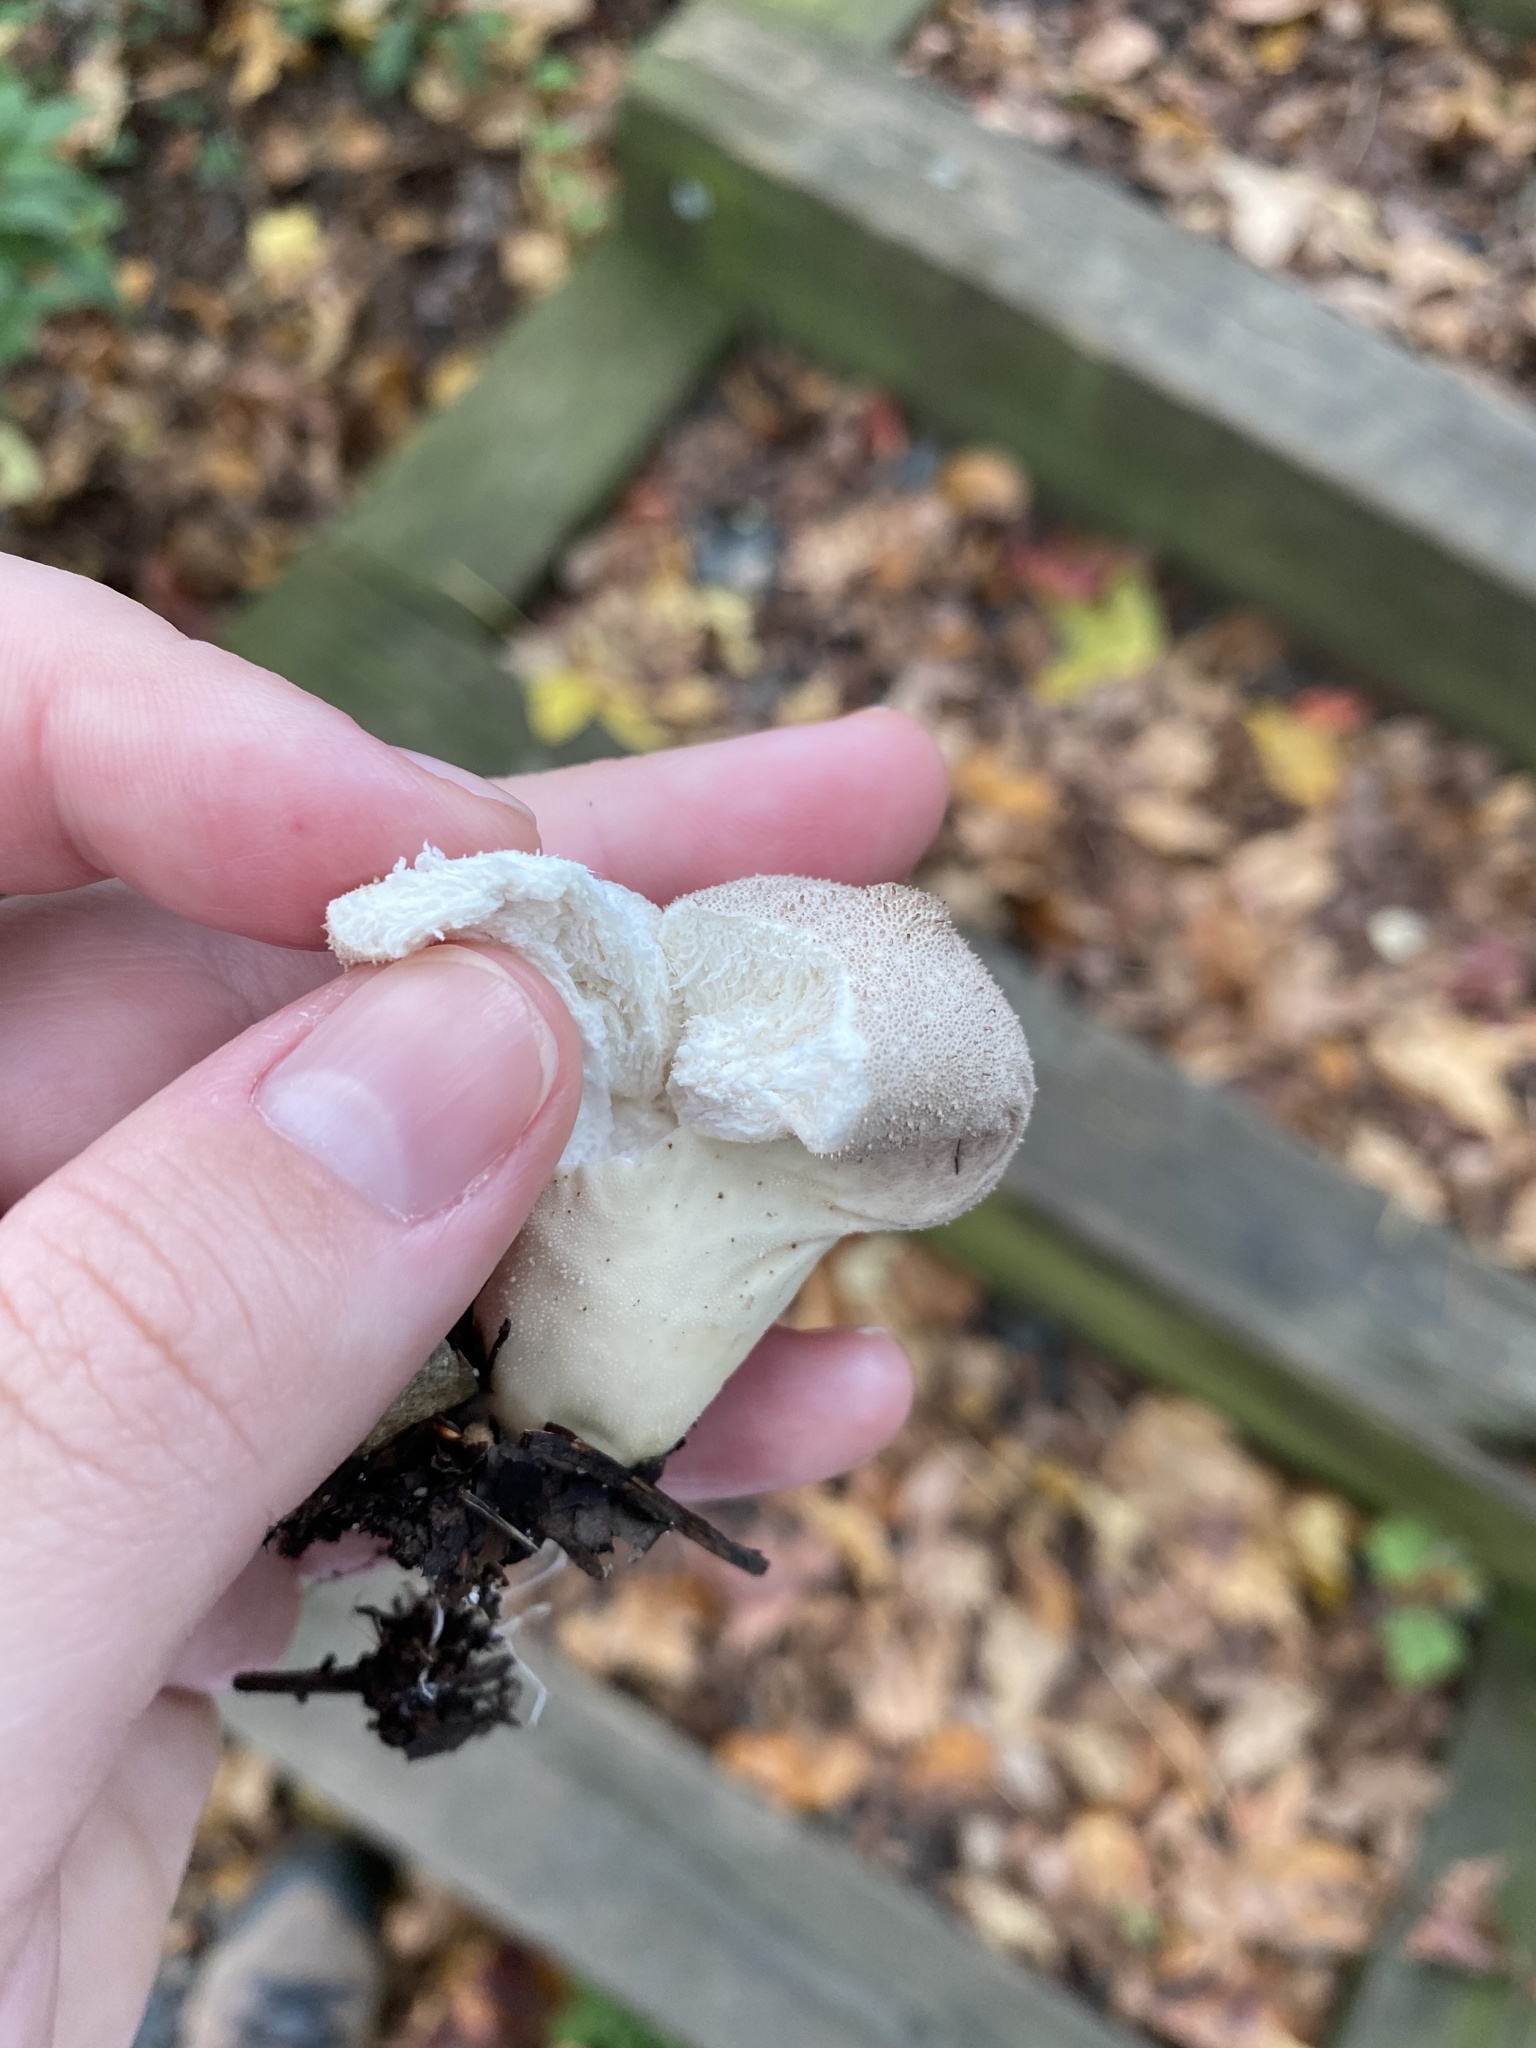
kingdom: Fungi
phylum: Basidiomycota
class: Agaricomycetes
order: Agaricales
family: Lycoperdaceae
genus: Lycoperdon
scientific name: Lycoperdon perlatum
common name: Common puffball
